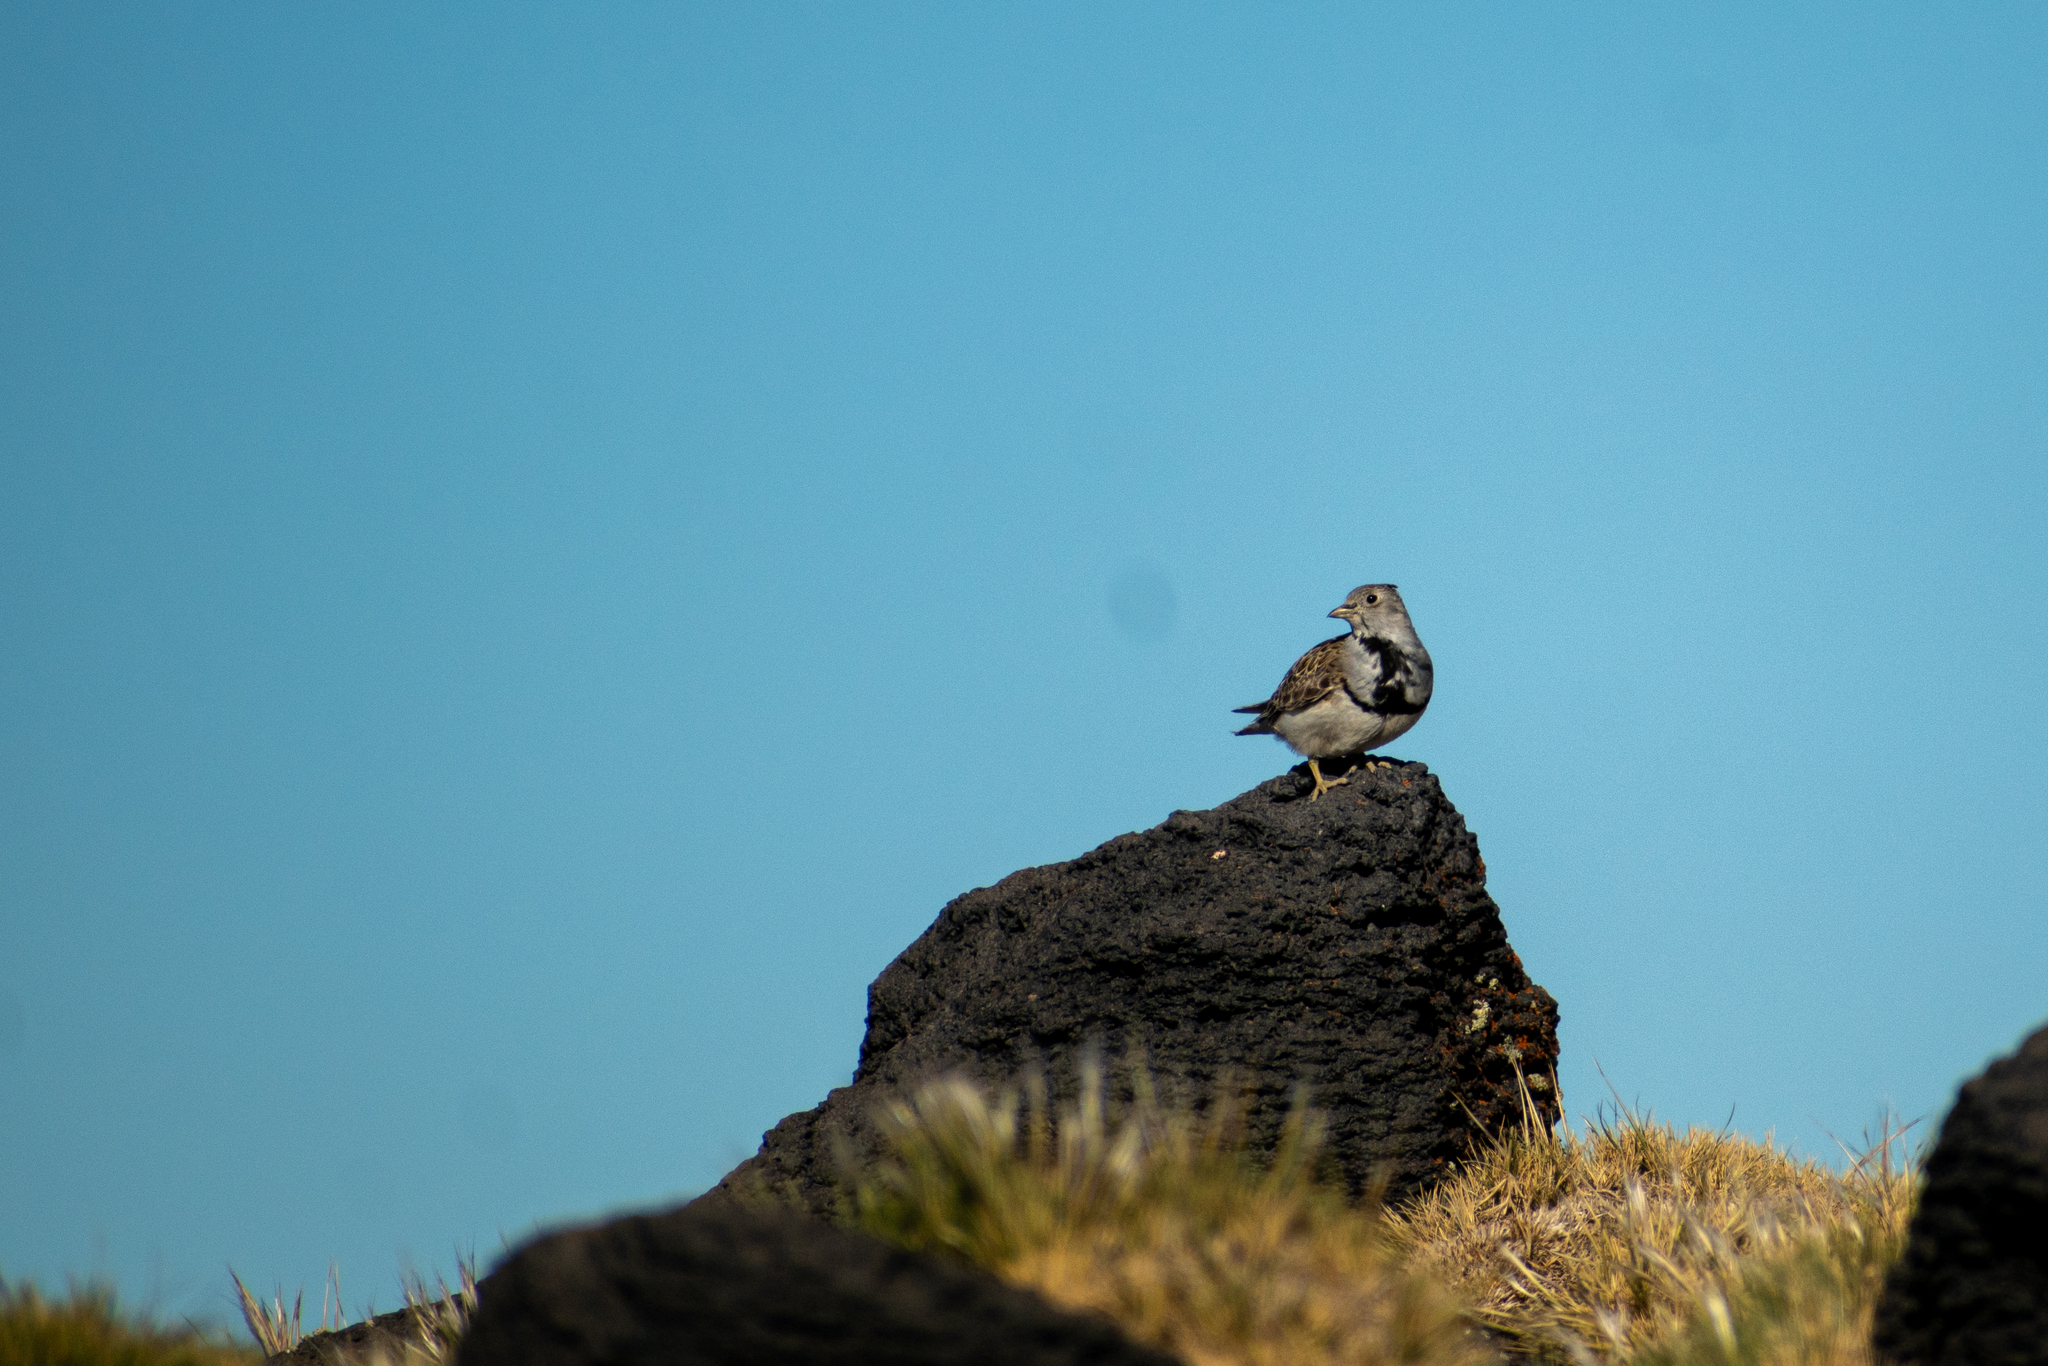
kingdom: Animalia
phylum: Chordata
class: Aves
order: Charadriiformes
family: Thinocoridae
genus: Thinocorus
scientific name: Thinocorus rumicivorus
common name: Least seedsnipe
